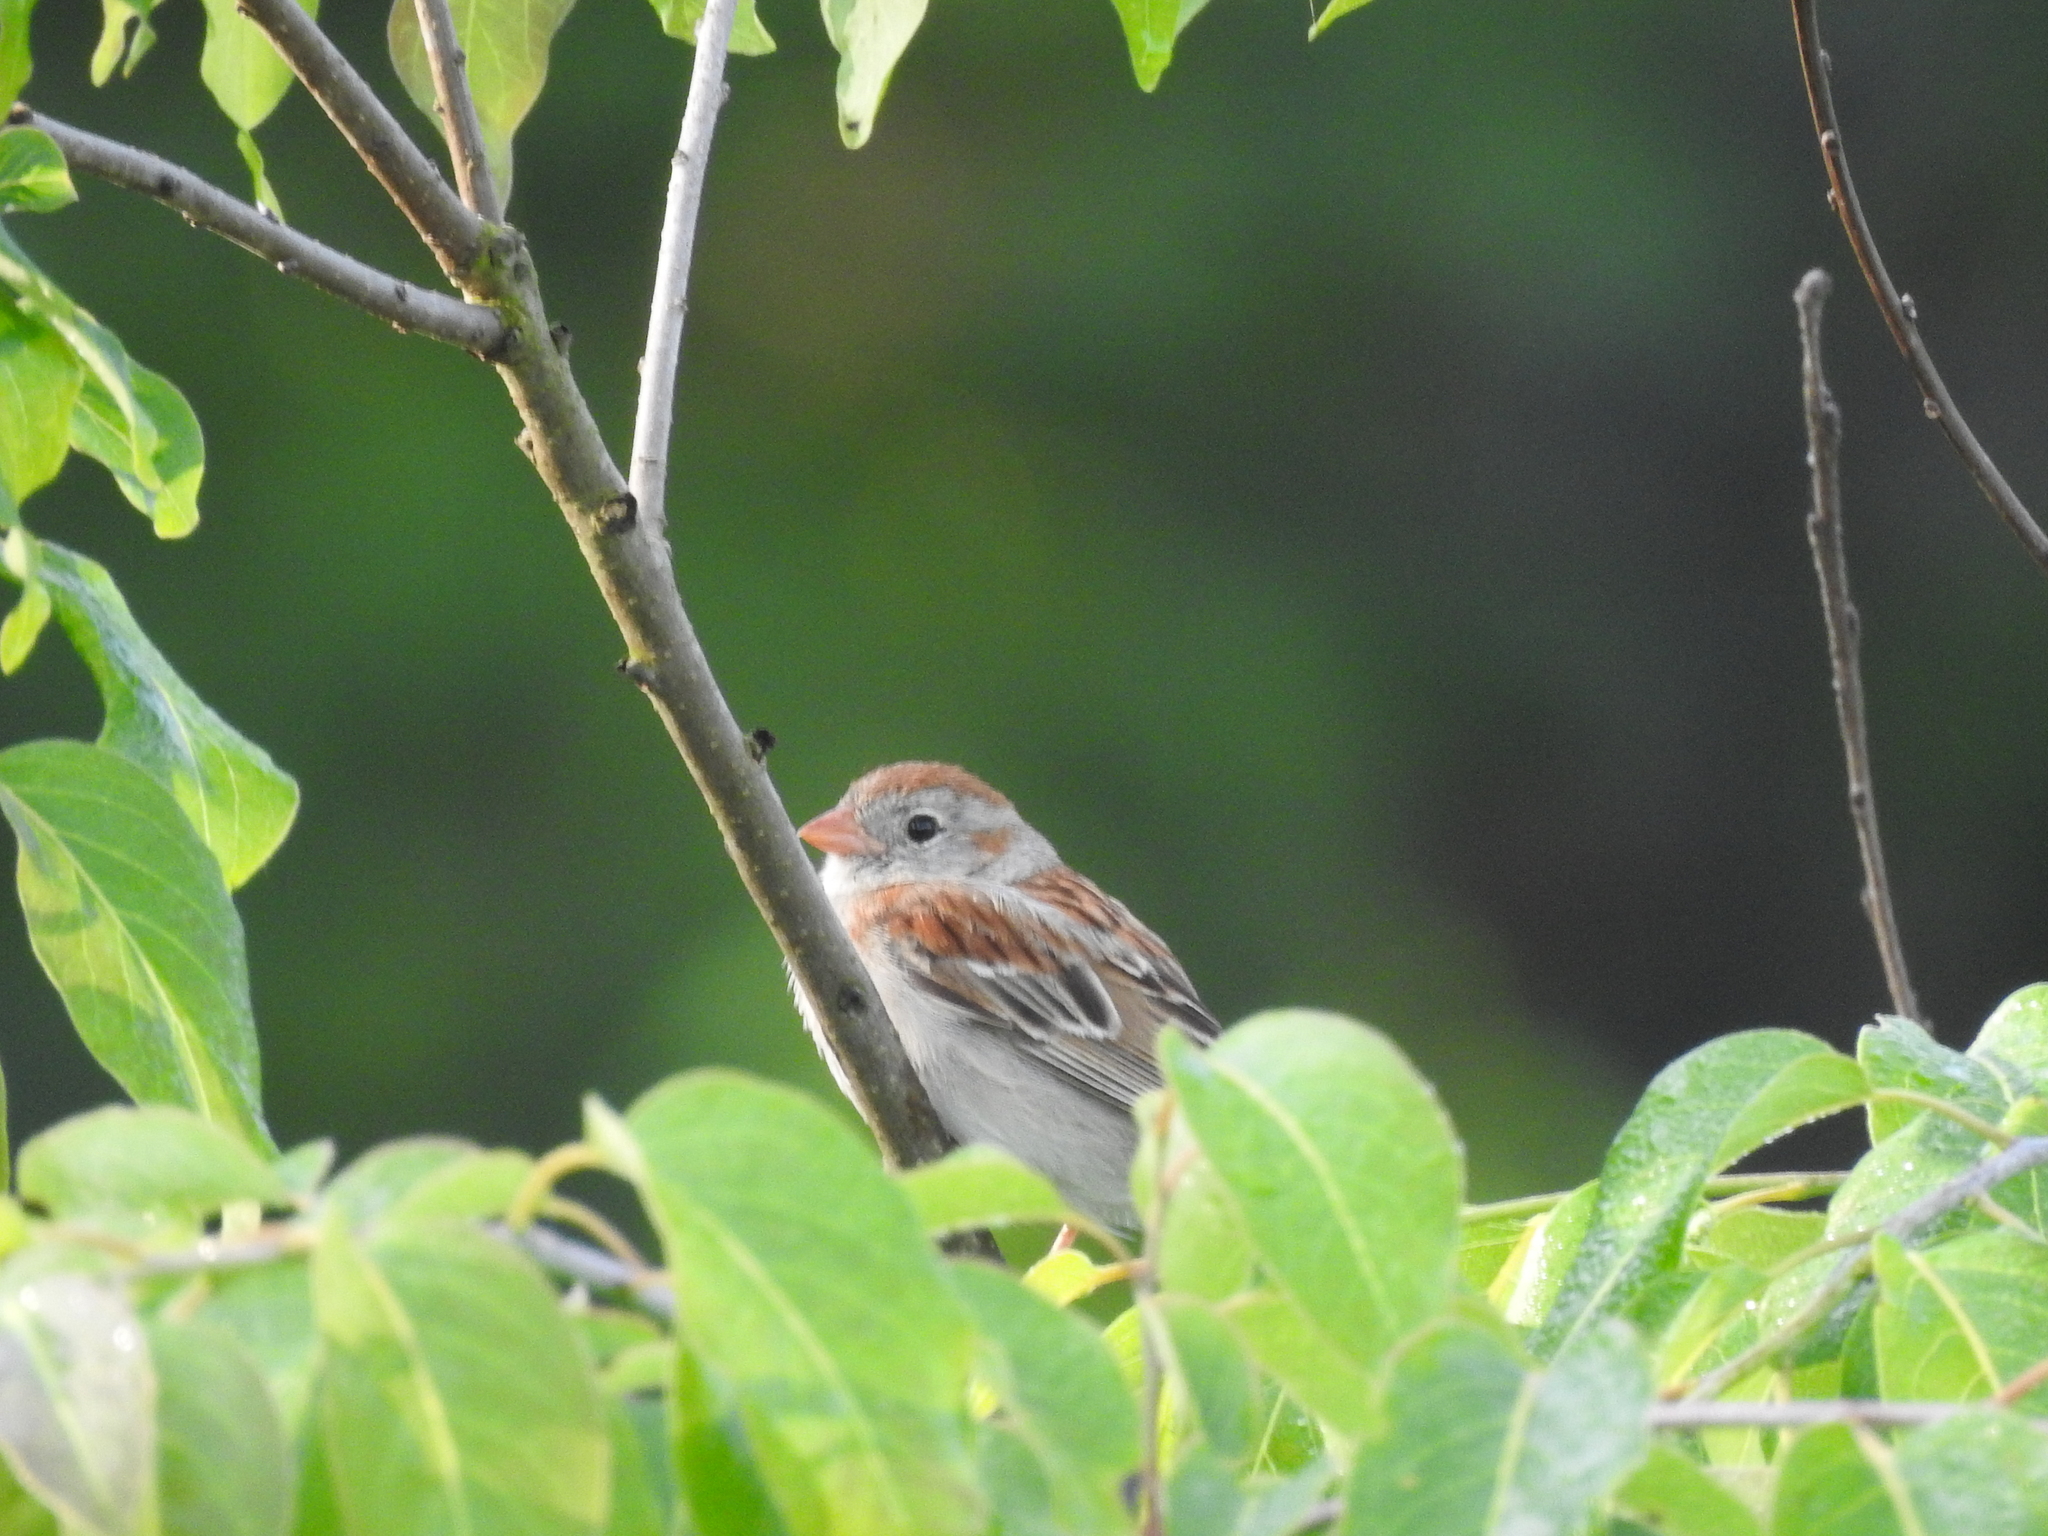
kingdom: Animalia
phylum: Chordata
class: Aves
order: Passeriformes
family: Passerellidae
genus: Spizella
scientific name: Spizella pusilla
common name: Field sparrow
